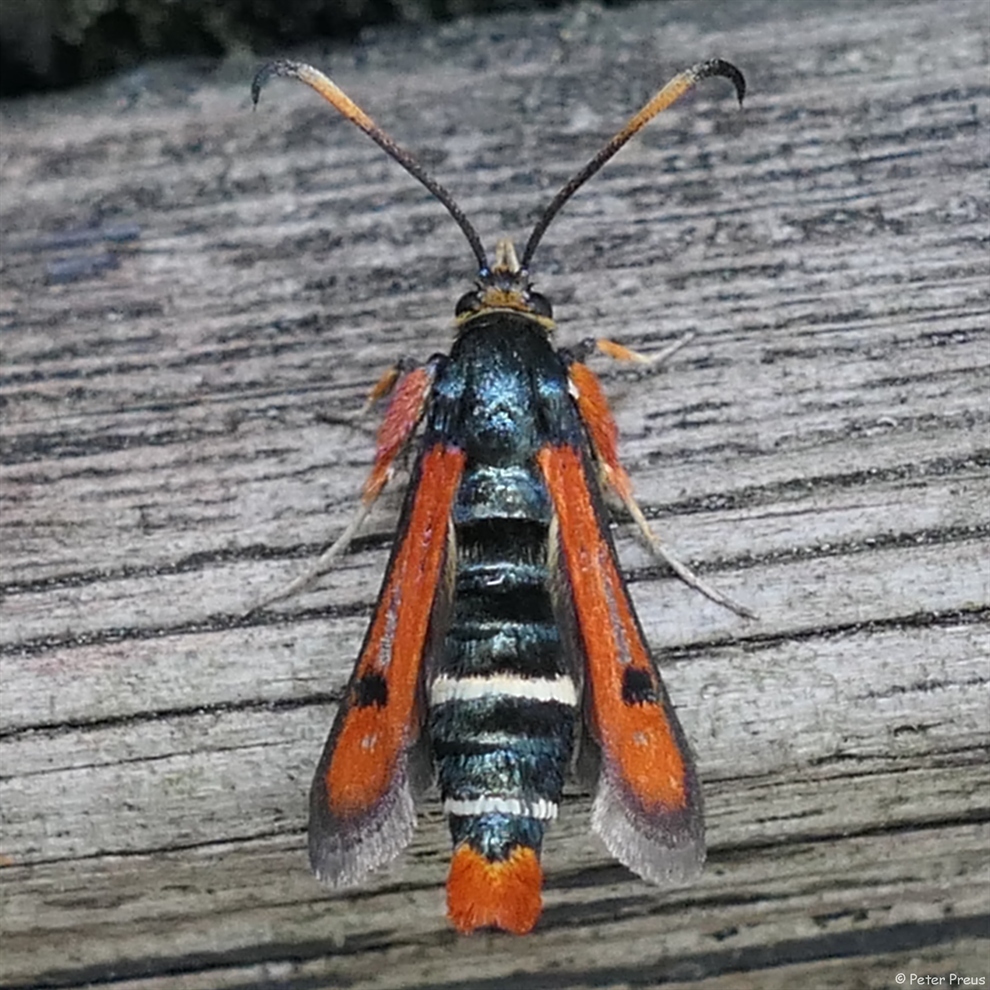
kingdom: Animalia
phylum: Arthropoda
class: Insecta
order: Lepidoptera
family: Sesiidae
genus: Pyropteron
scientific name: Pyropteron chrysidiforme
